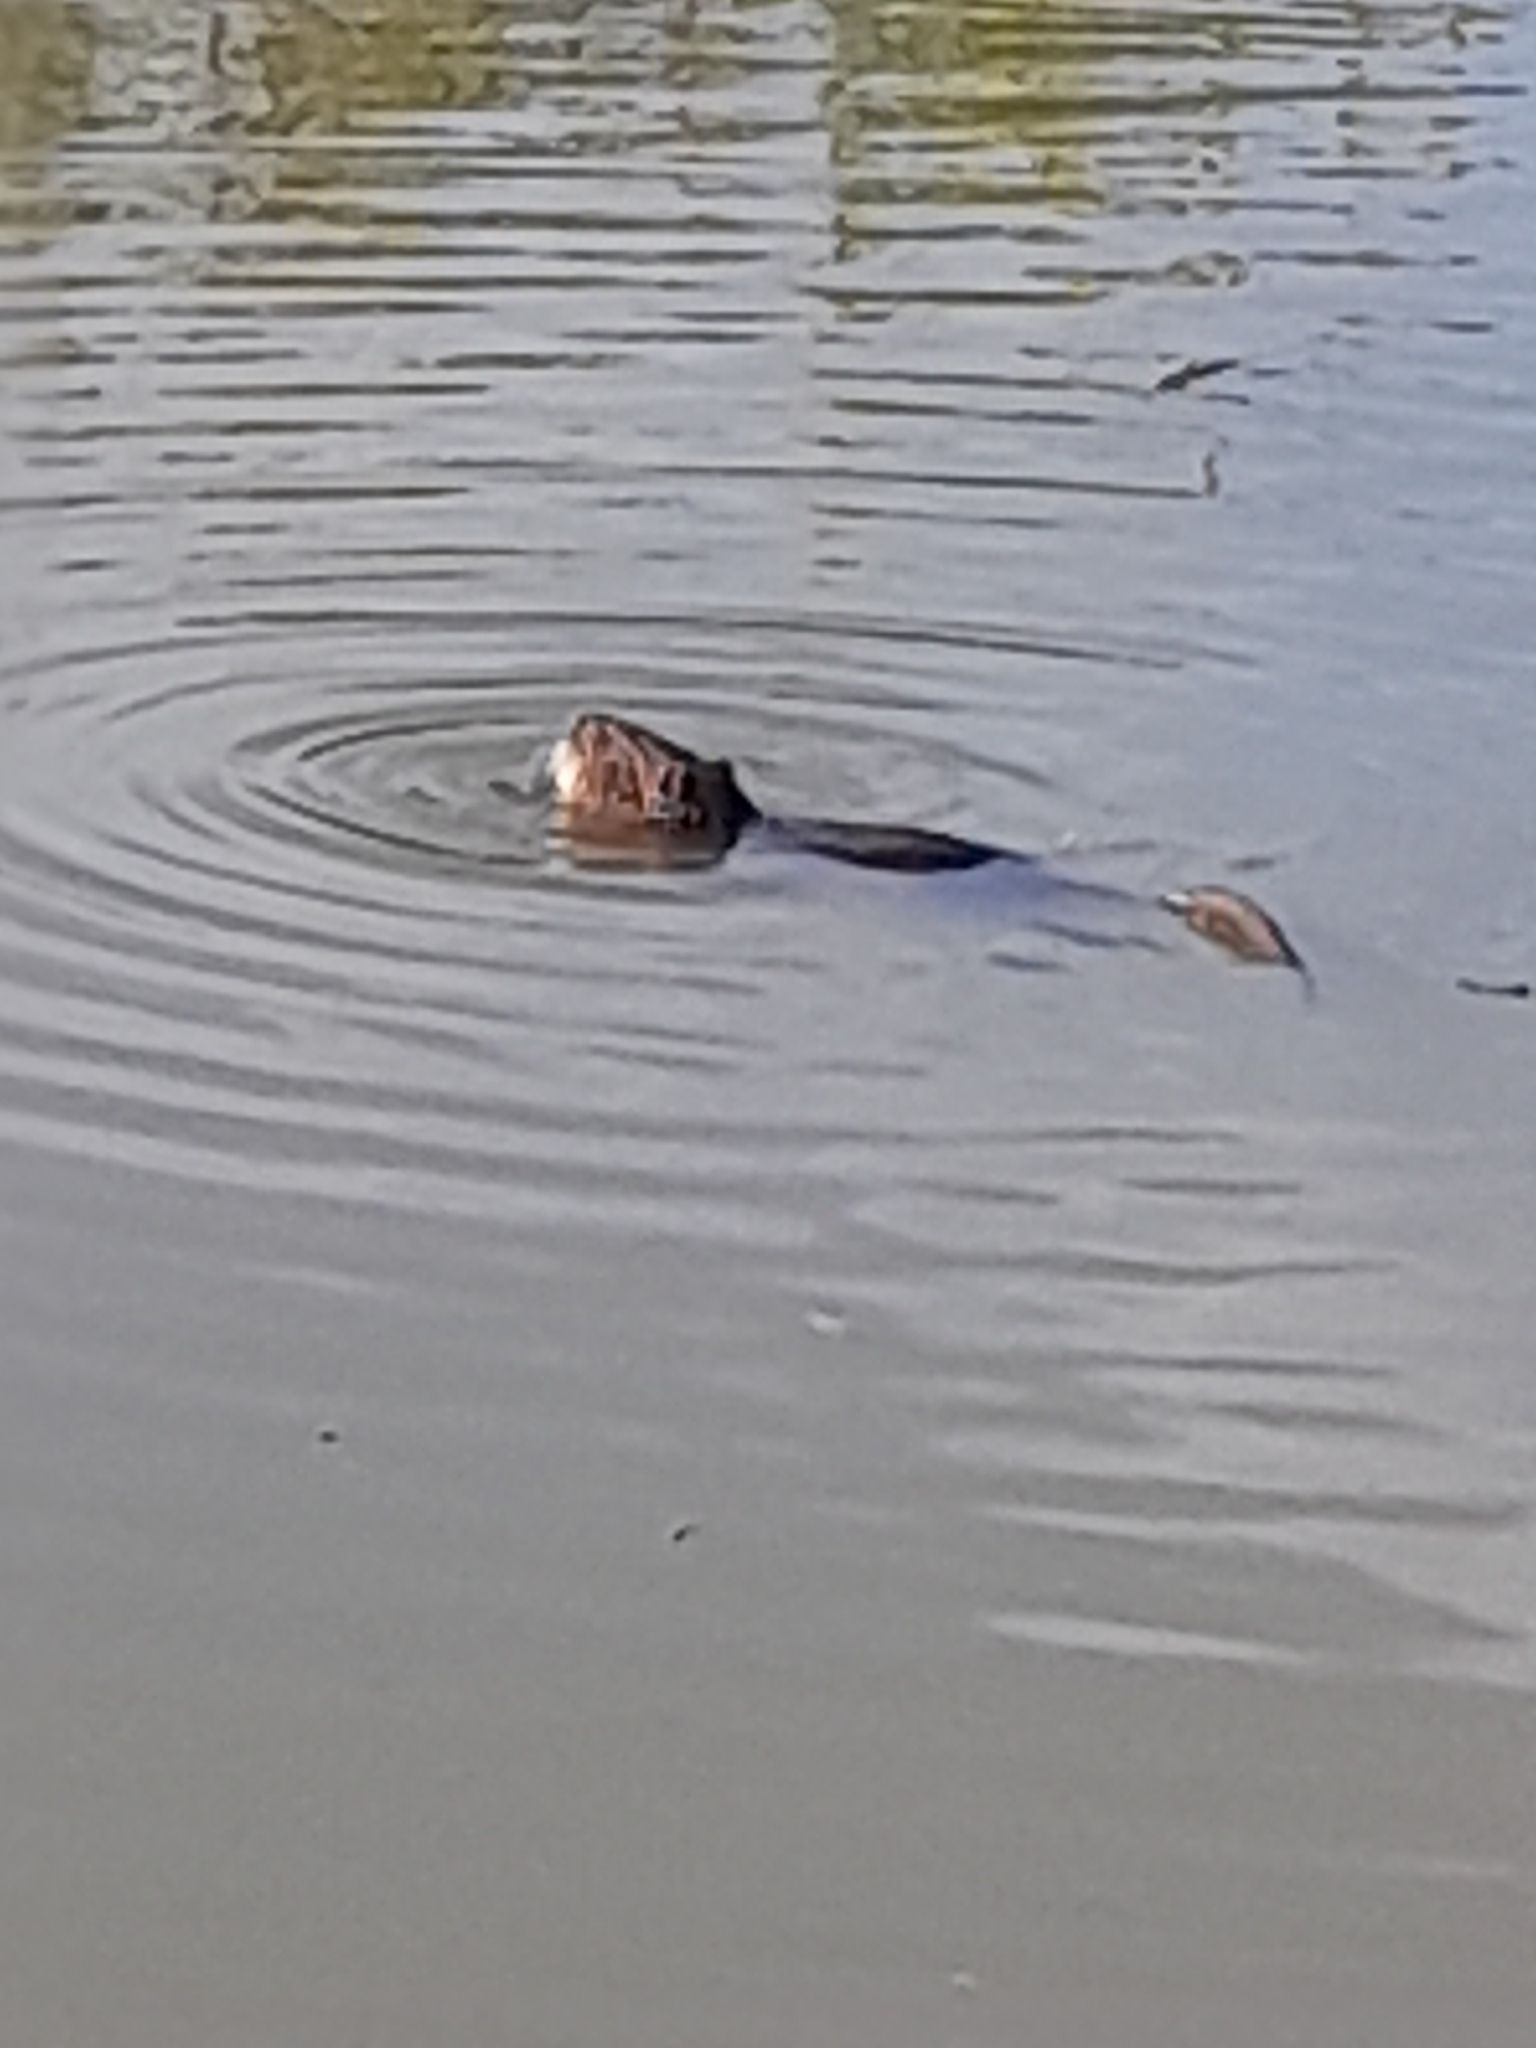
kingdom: Animalia
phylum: Chordata
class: Mammalia
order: Rodentia
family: Myocastoridae
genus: Myocastor
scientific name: Myocastor coypus
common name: Coypu
